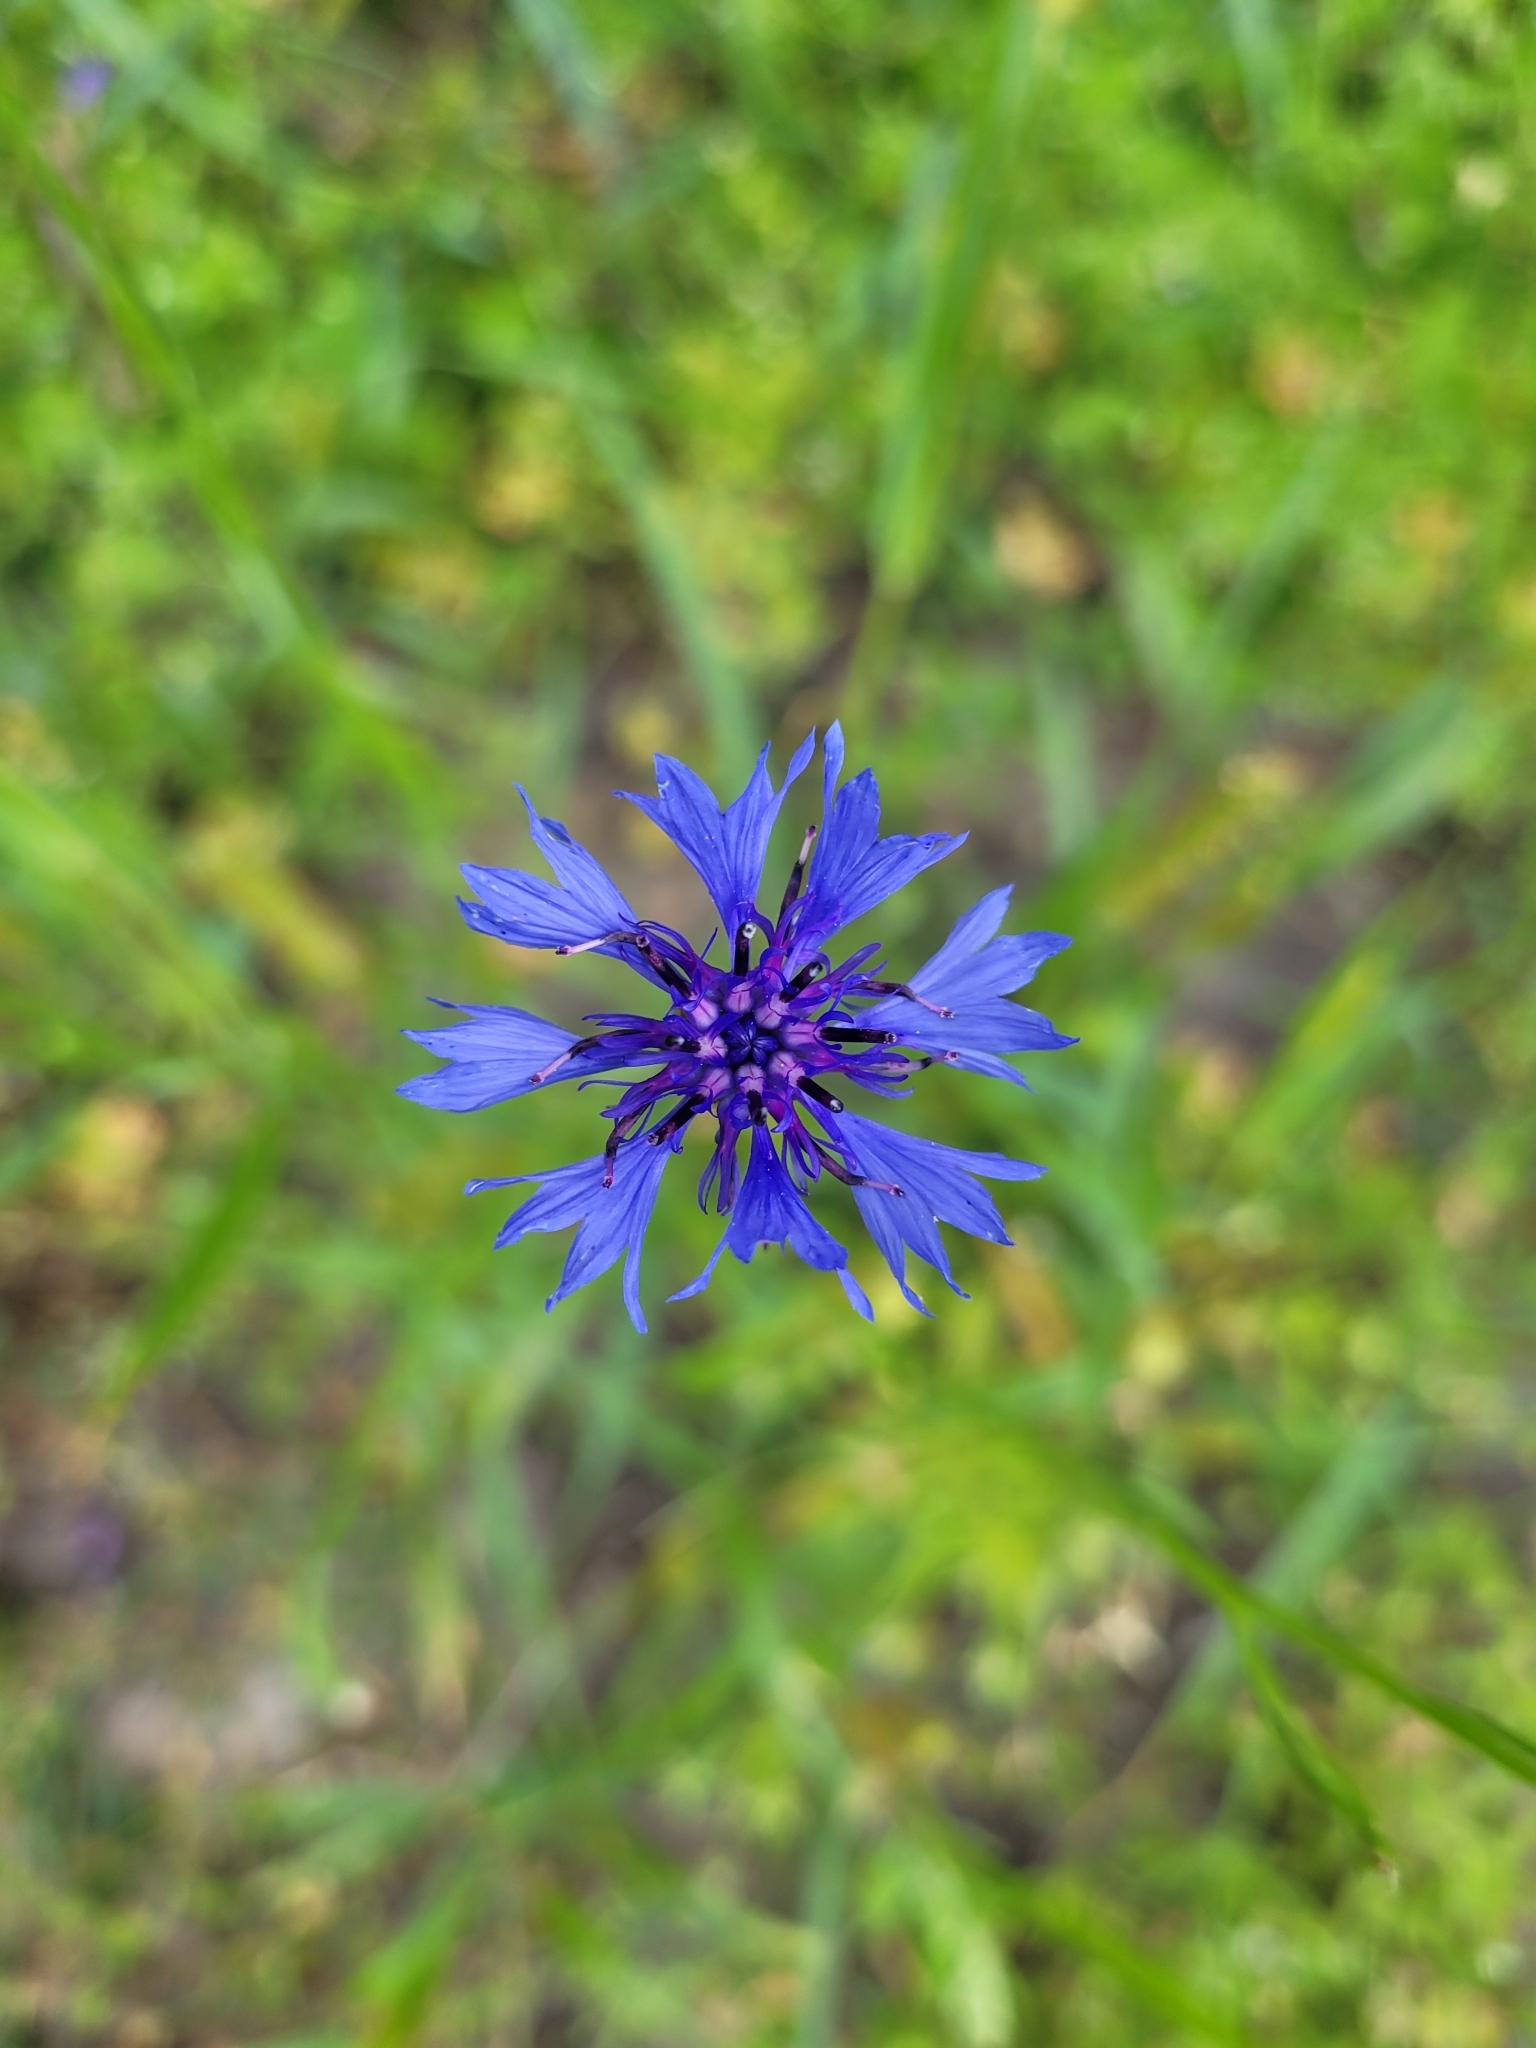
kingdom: Plantae
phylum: Tracheophyta
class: Magnoliopsida
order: Asterales
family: Asteraceae
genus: Centaurea
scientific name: Centaurea cyanus
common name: Cornflower
